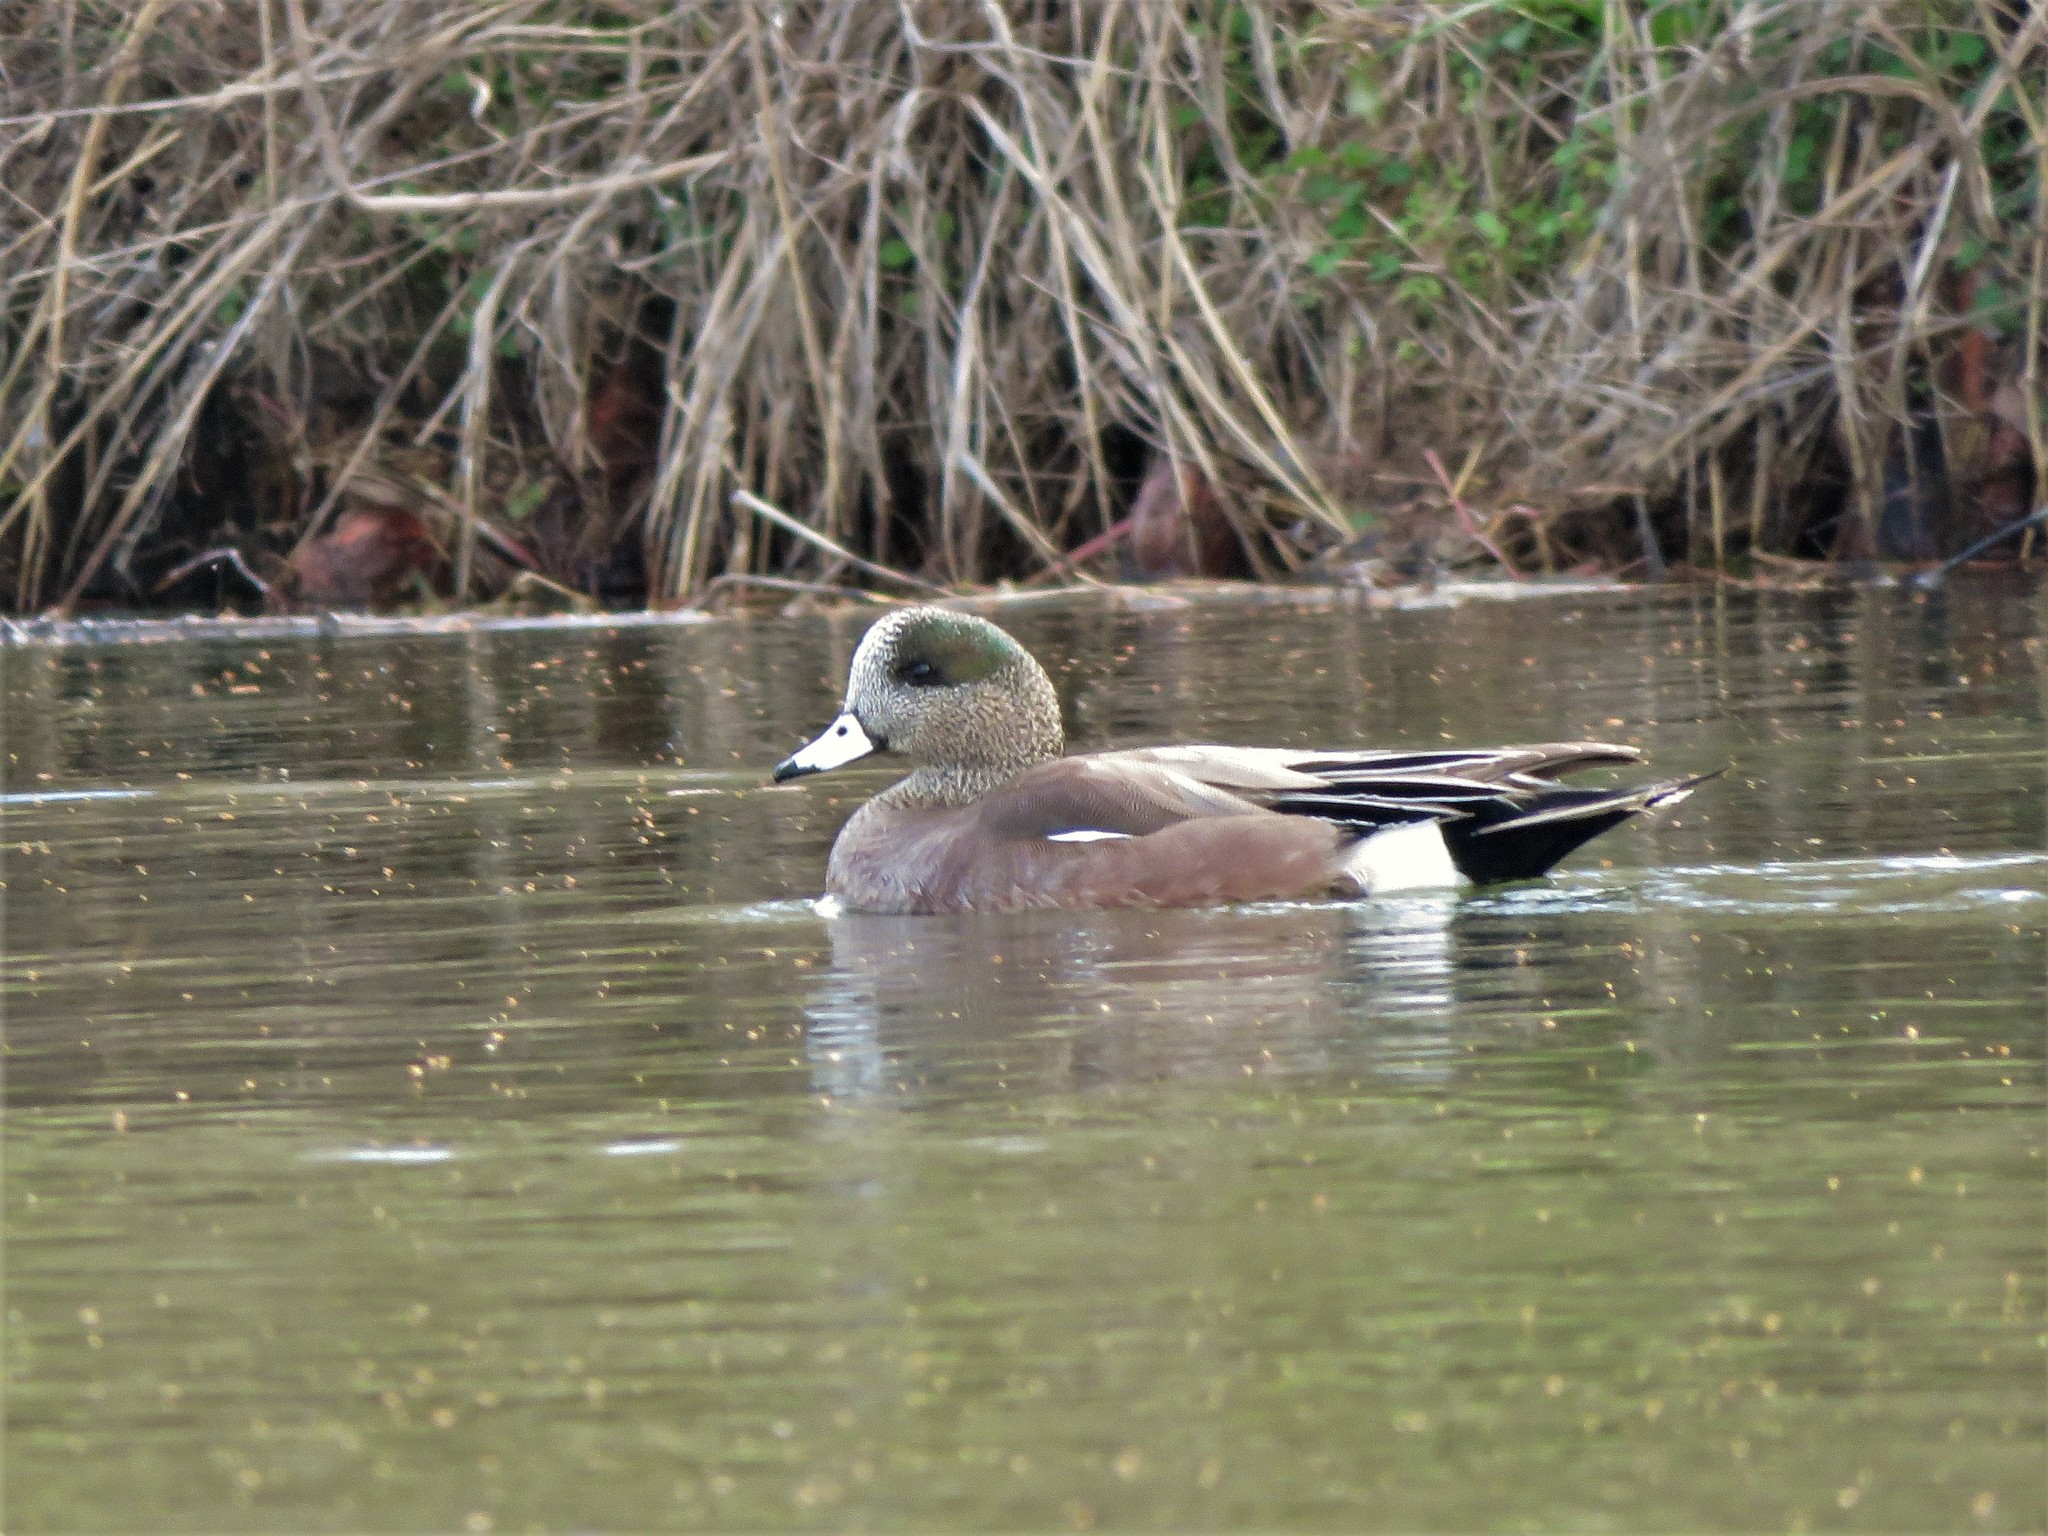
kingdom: Animalia
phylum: Chordata
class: Aves
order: Anseriformes
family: Anatidae
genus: Mareca
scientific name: Mareca americana
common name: American wigeon
